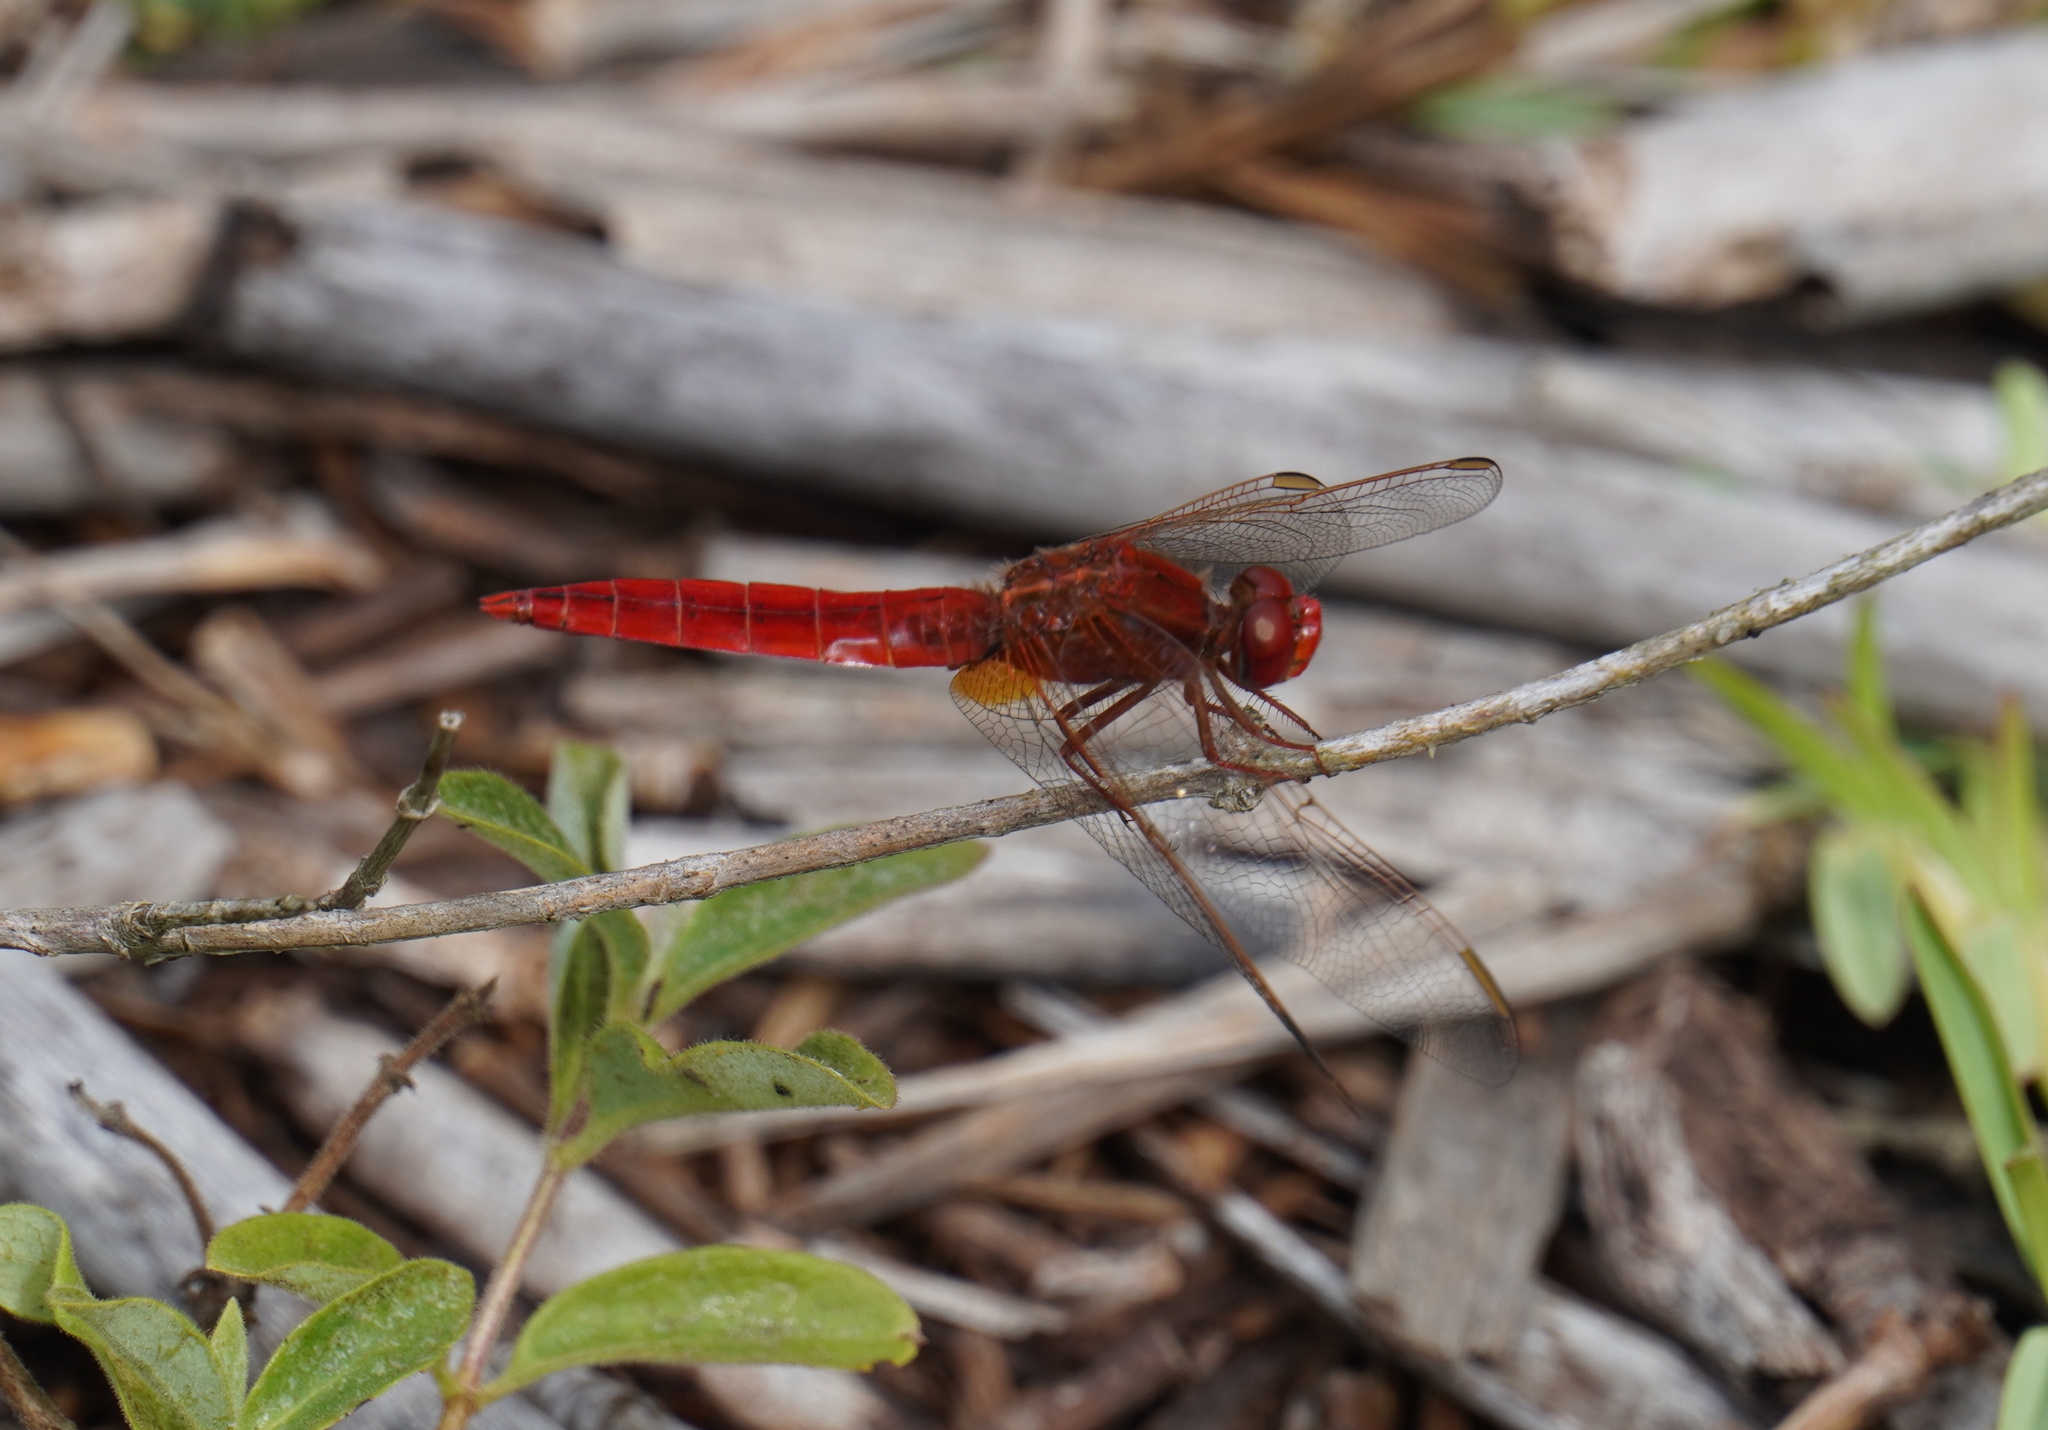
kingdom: Animalia
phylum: Arthropoda
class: Insecta
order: Odonata
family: Libellulidae
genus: Crocothemis
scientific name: Crocothemis erythraea
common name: Scarlet dragonfly
